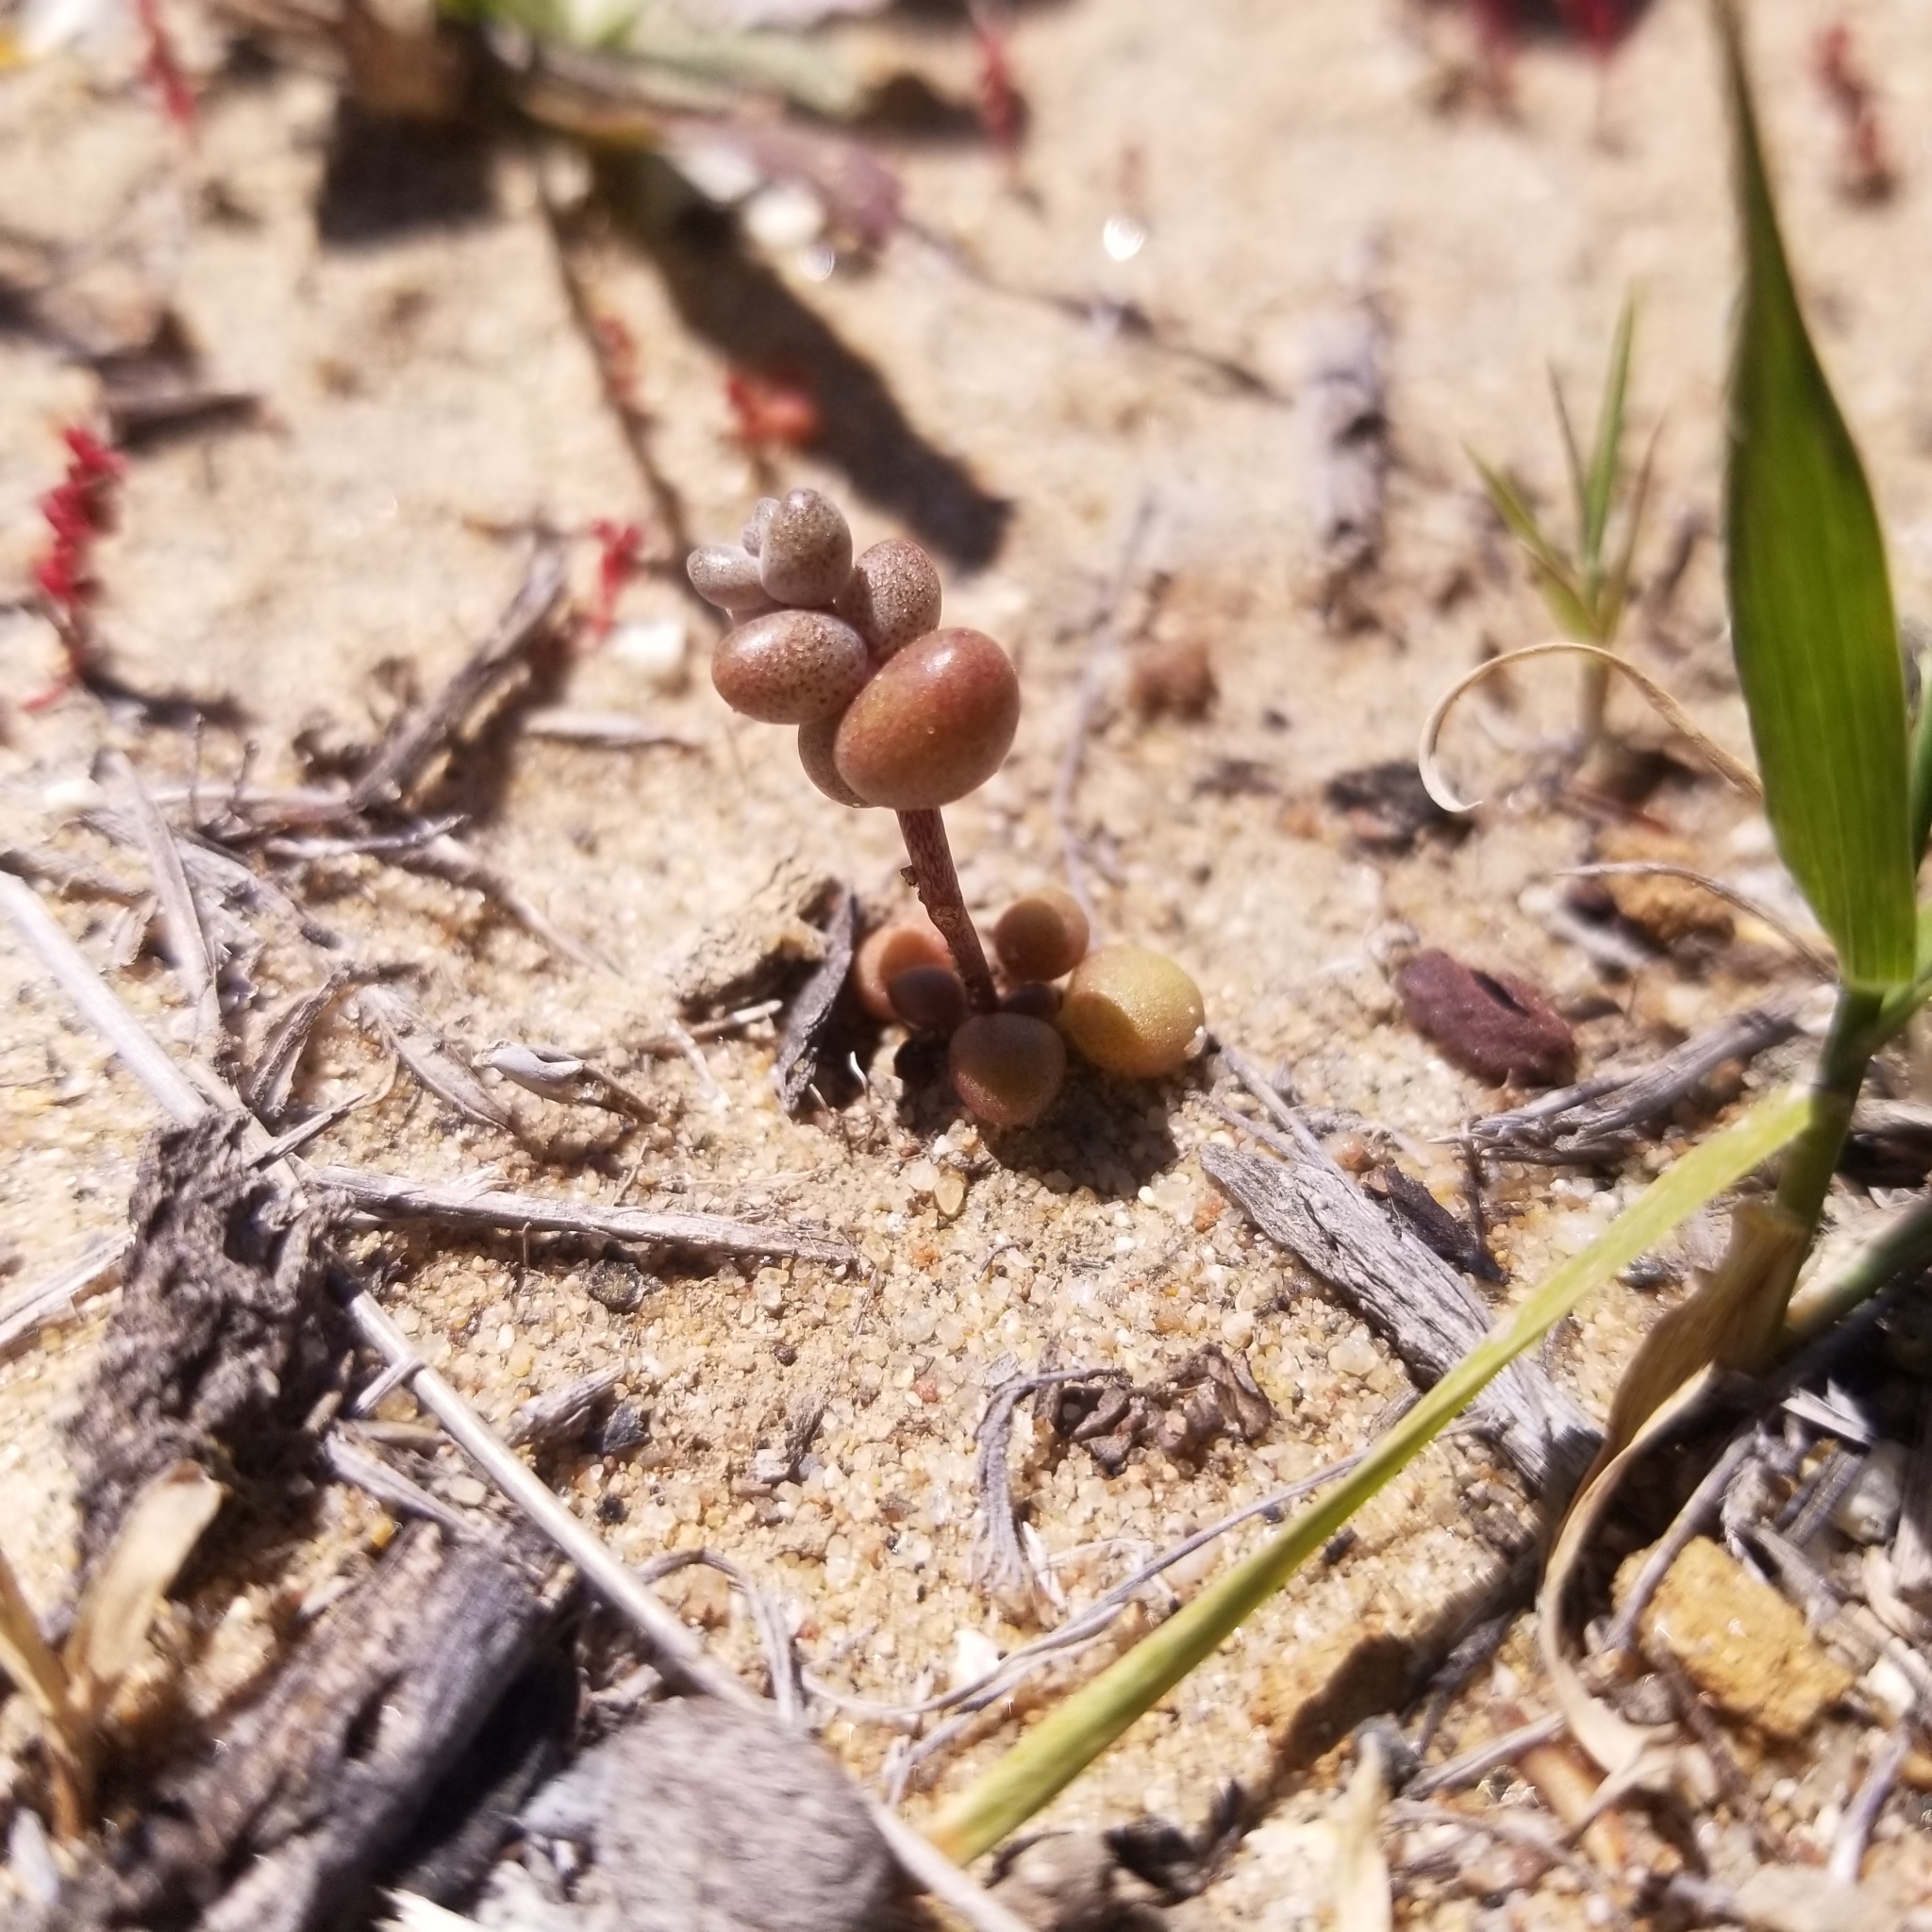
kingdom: Plantae
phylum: Tracheophyta
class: Magnoliopsida
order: Saxifragales
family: Crassulaceae
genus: Dudleya
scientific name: Dudleya blochmaniae
